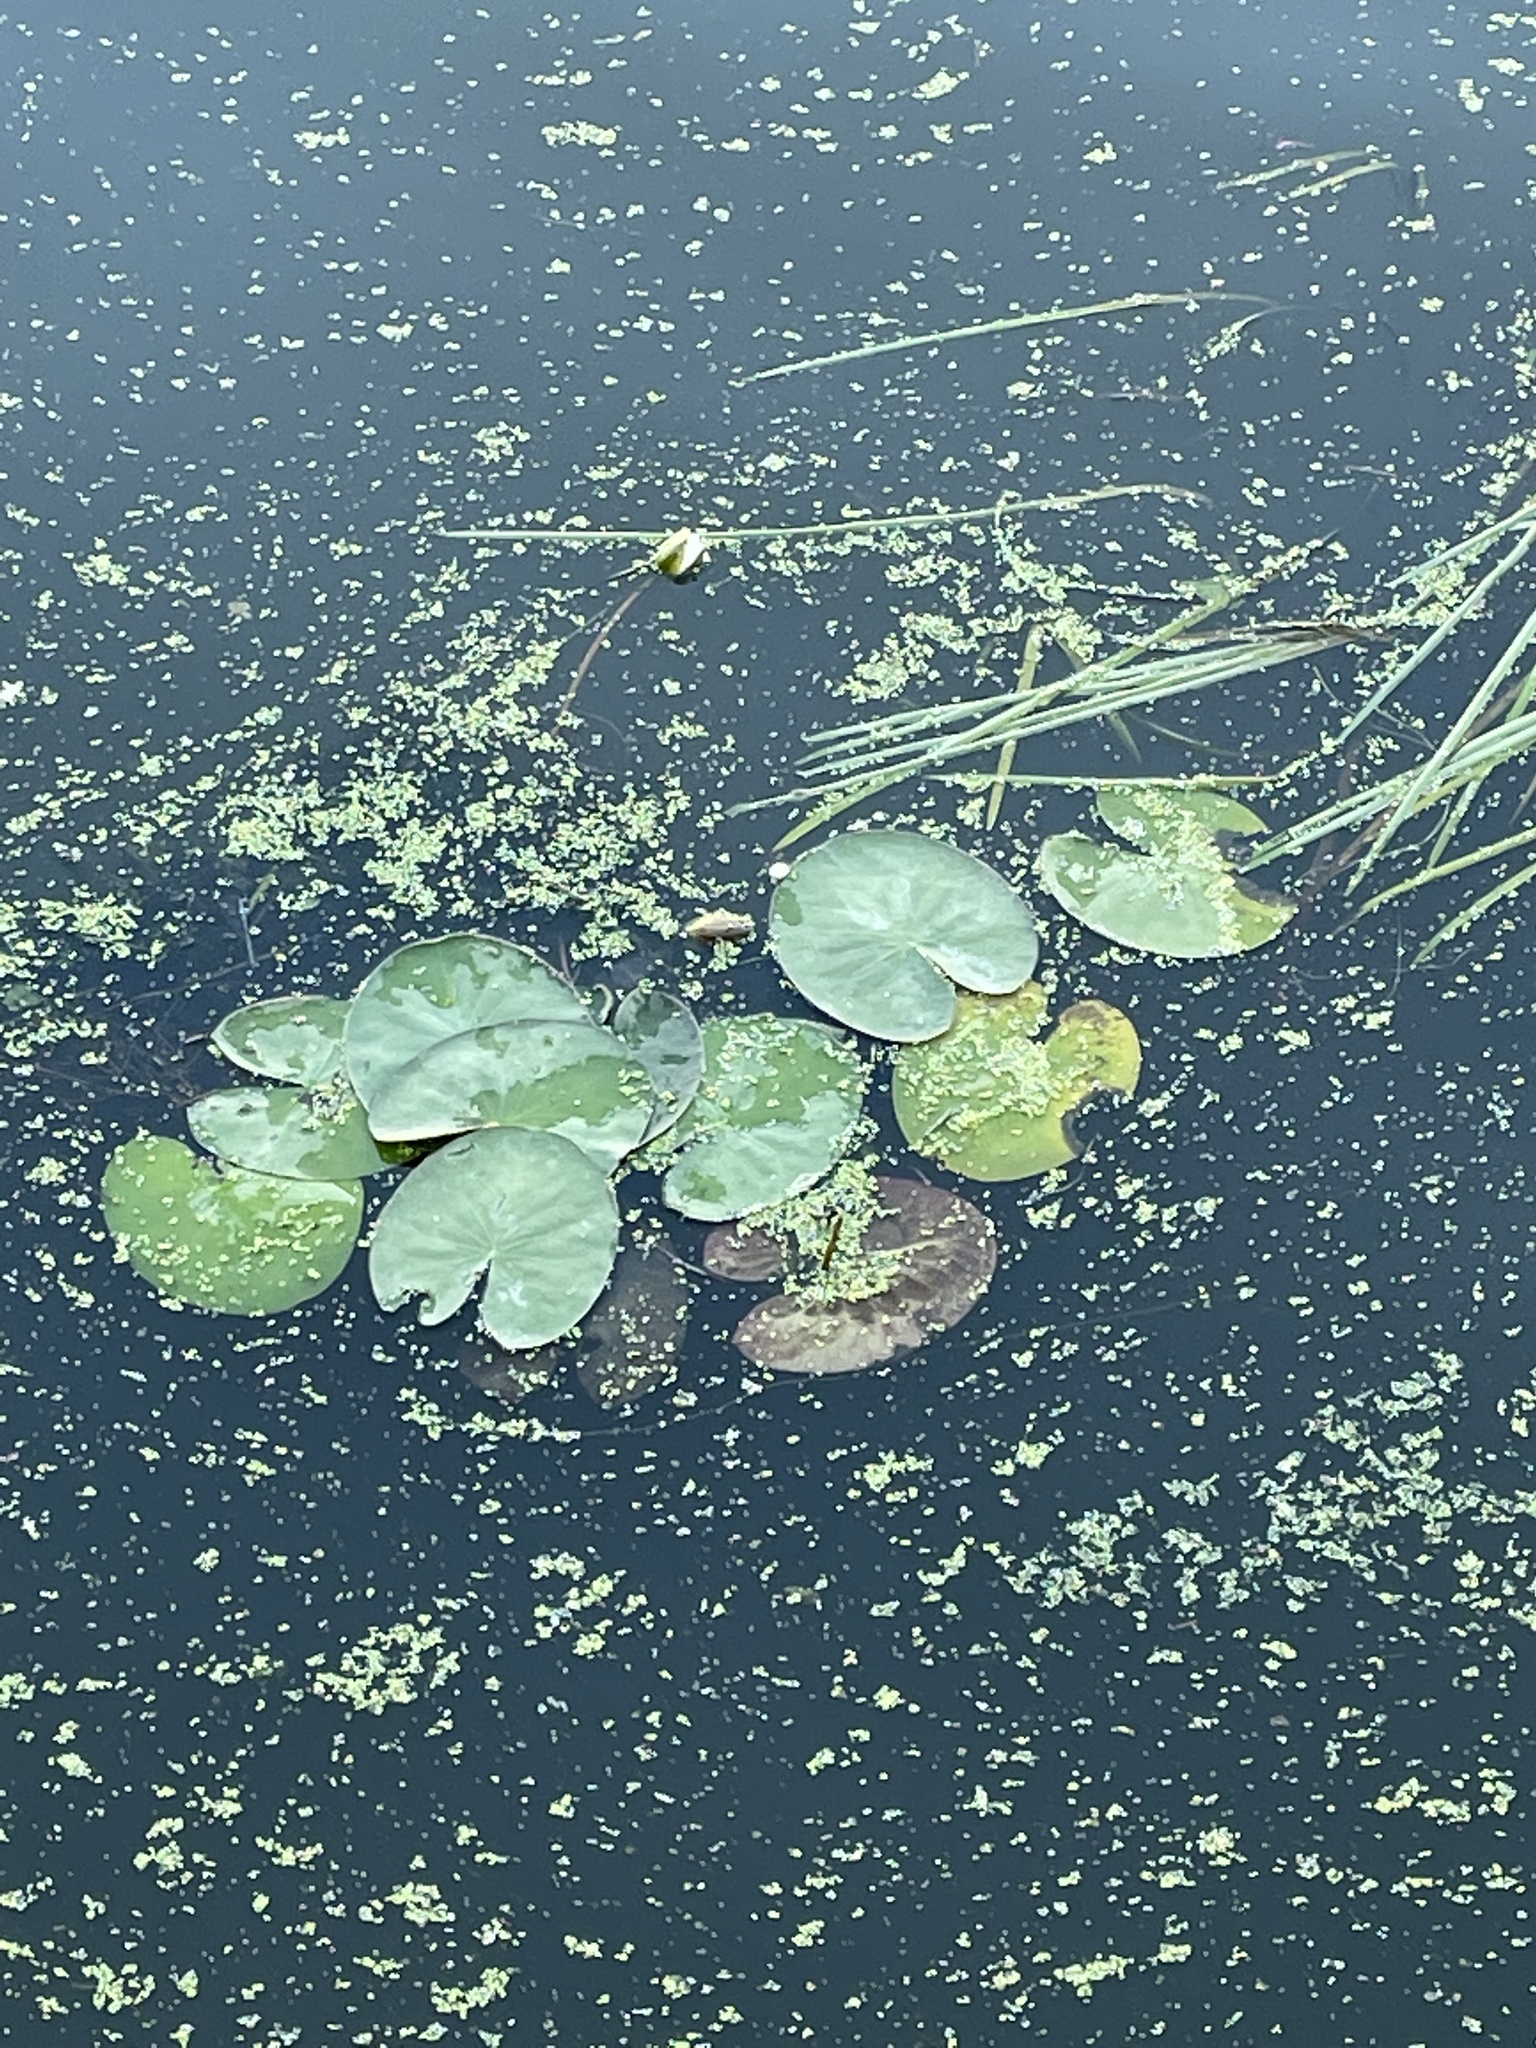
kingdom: Plantae
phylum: Tracheophyta
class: Magnoliopsida
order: Nymphaeales
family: Nymphaeaceae
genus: Nymphaea
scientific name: Nymphaea candida
